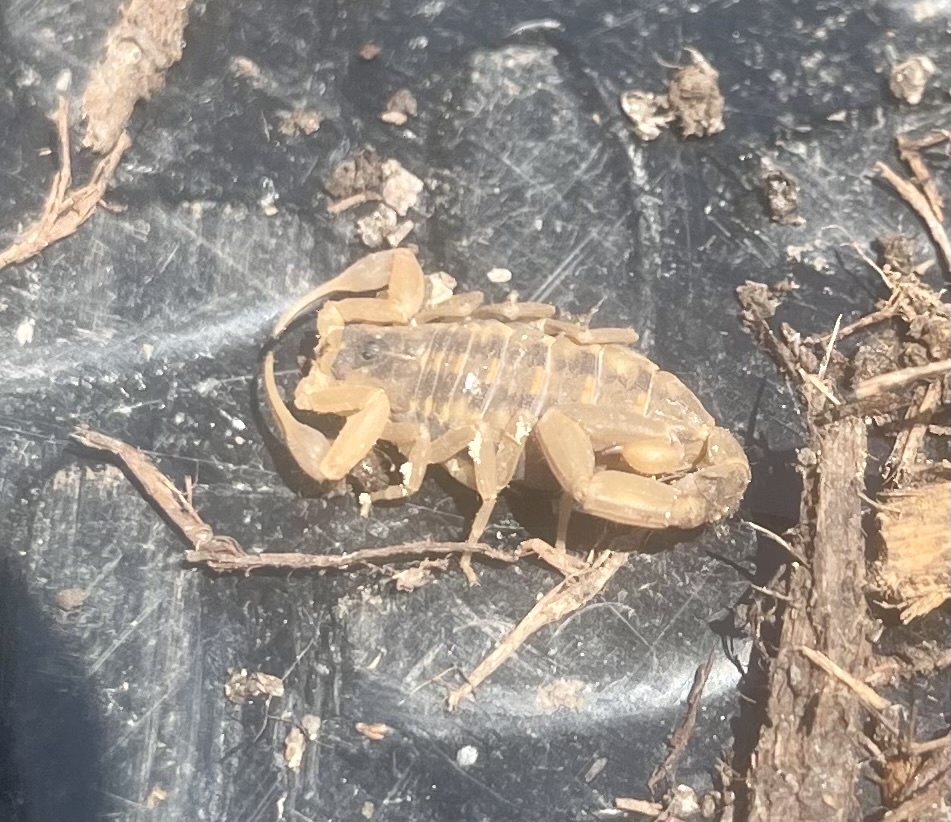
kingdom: Animalia
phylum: Arthropoda
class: Arachnida
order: Scorpiones
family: Buthidae
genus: Centruroides
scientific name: Centruroides vittatus
